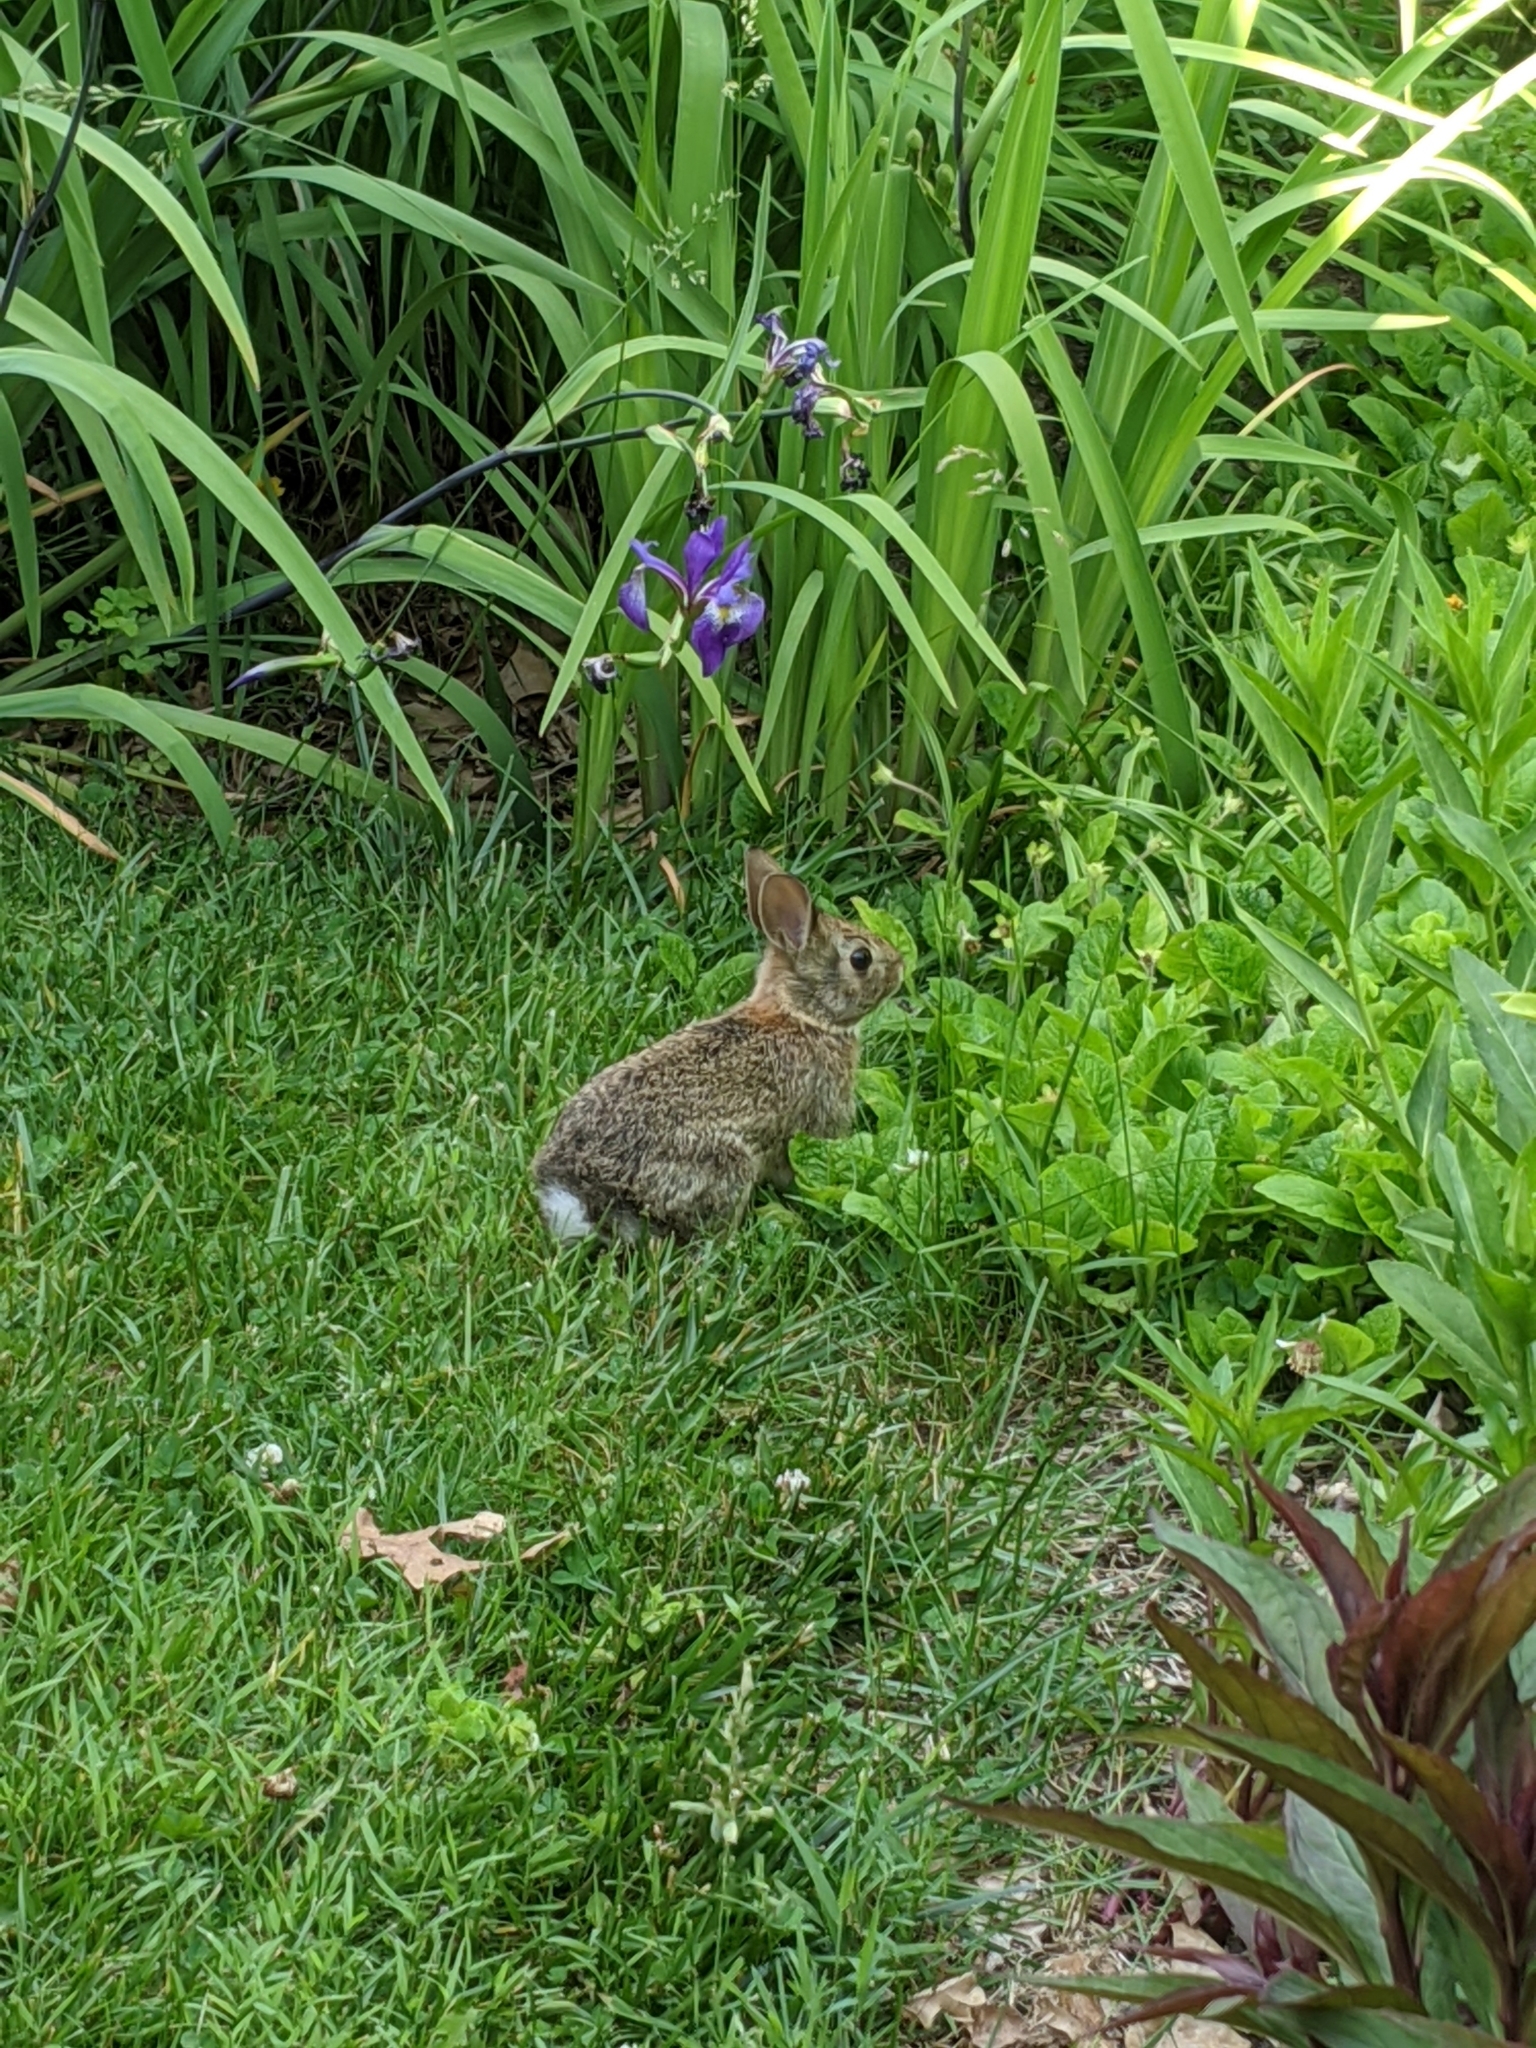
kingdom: Animalia
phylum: Chordata
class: Mammalia
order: Lagomorpha
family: Leporidae
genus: Sylvilagus
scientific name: Sylvilagus floridanus
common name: Eastern cottontail
